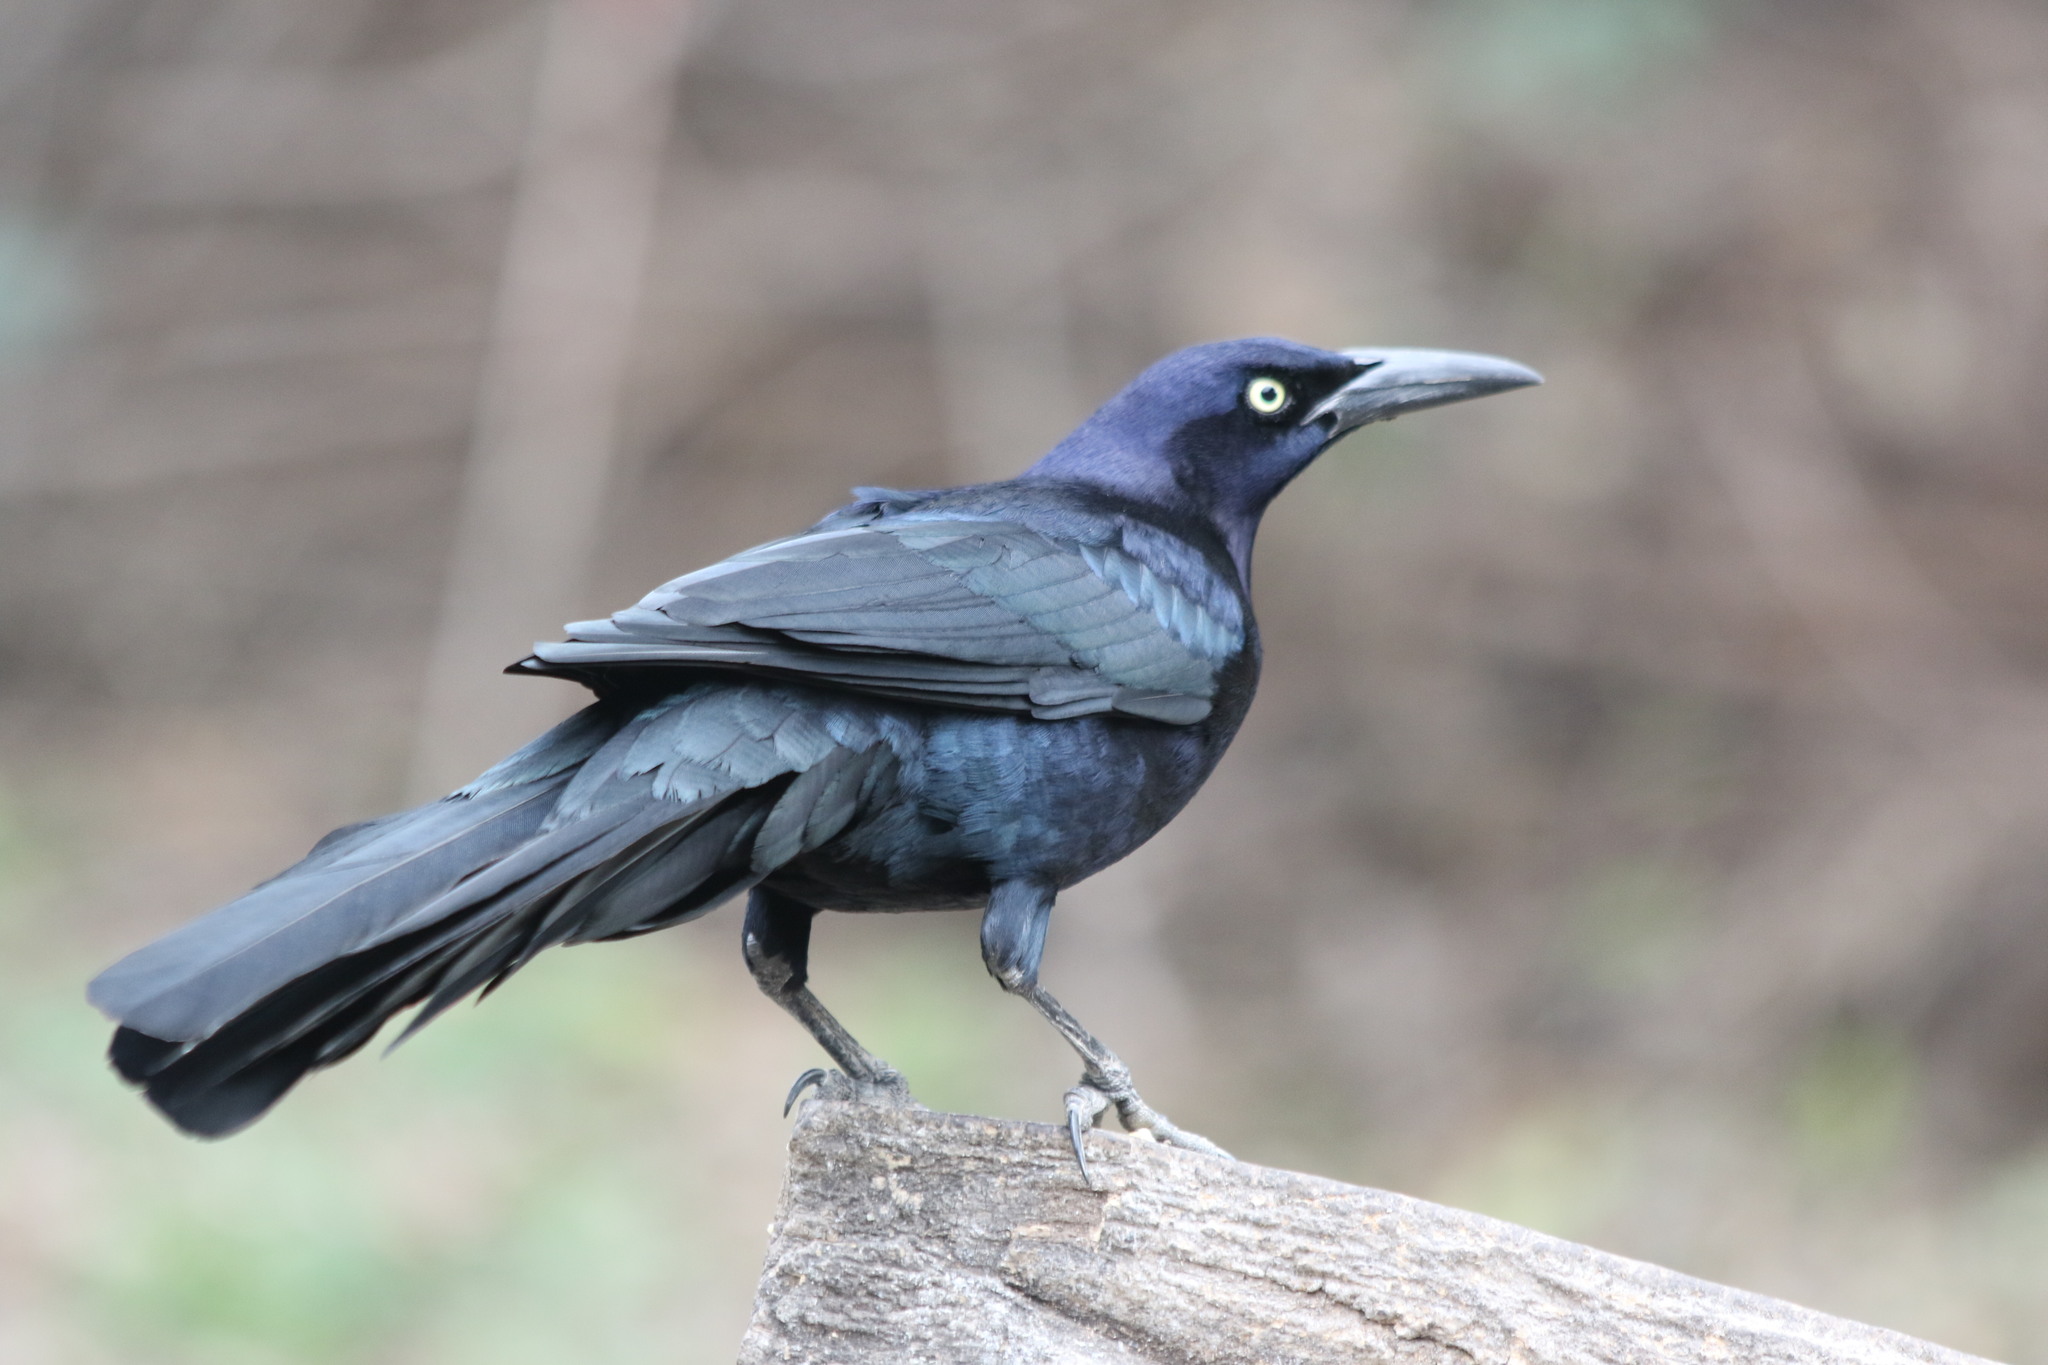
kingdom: Animalia
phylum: Chordata
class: Aves
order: Passeriformes
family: Icteridae
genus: Quiscalus
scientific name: Quiscalus mexicanus
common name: Great-tailed grackle
